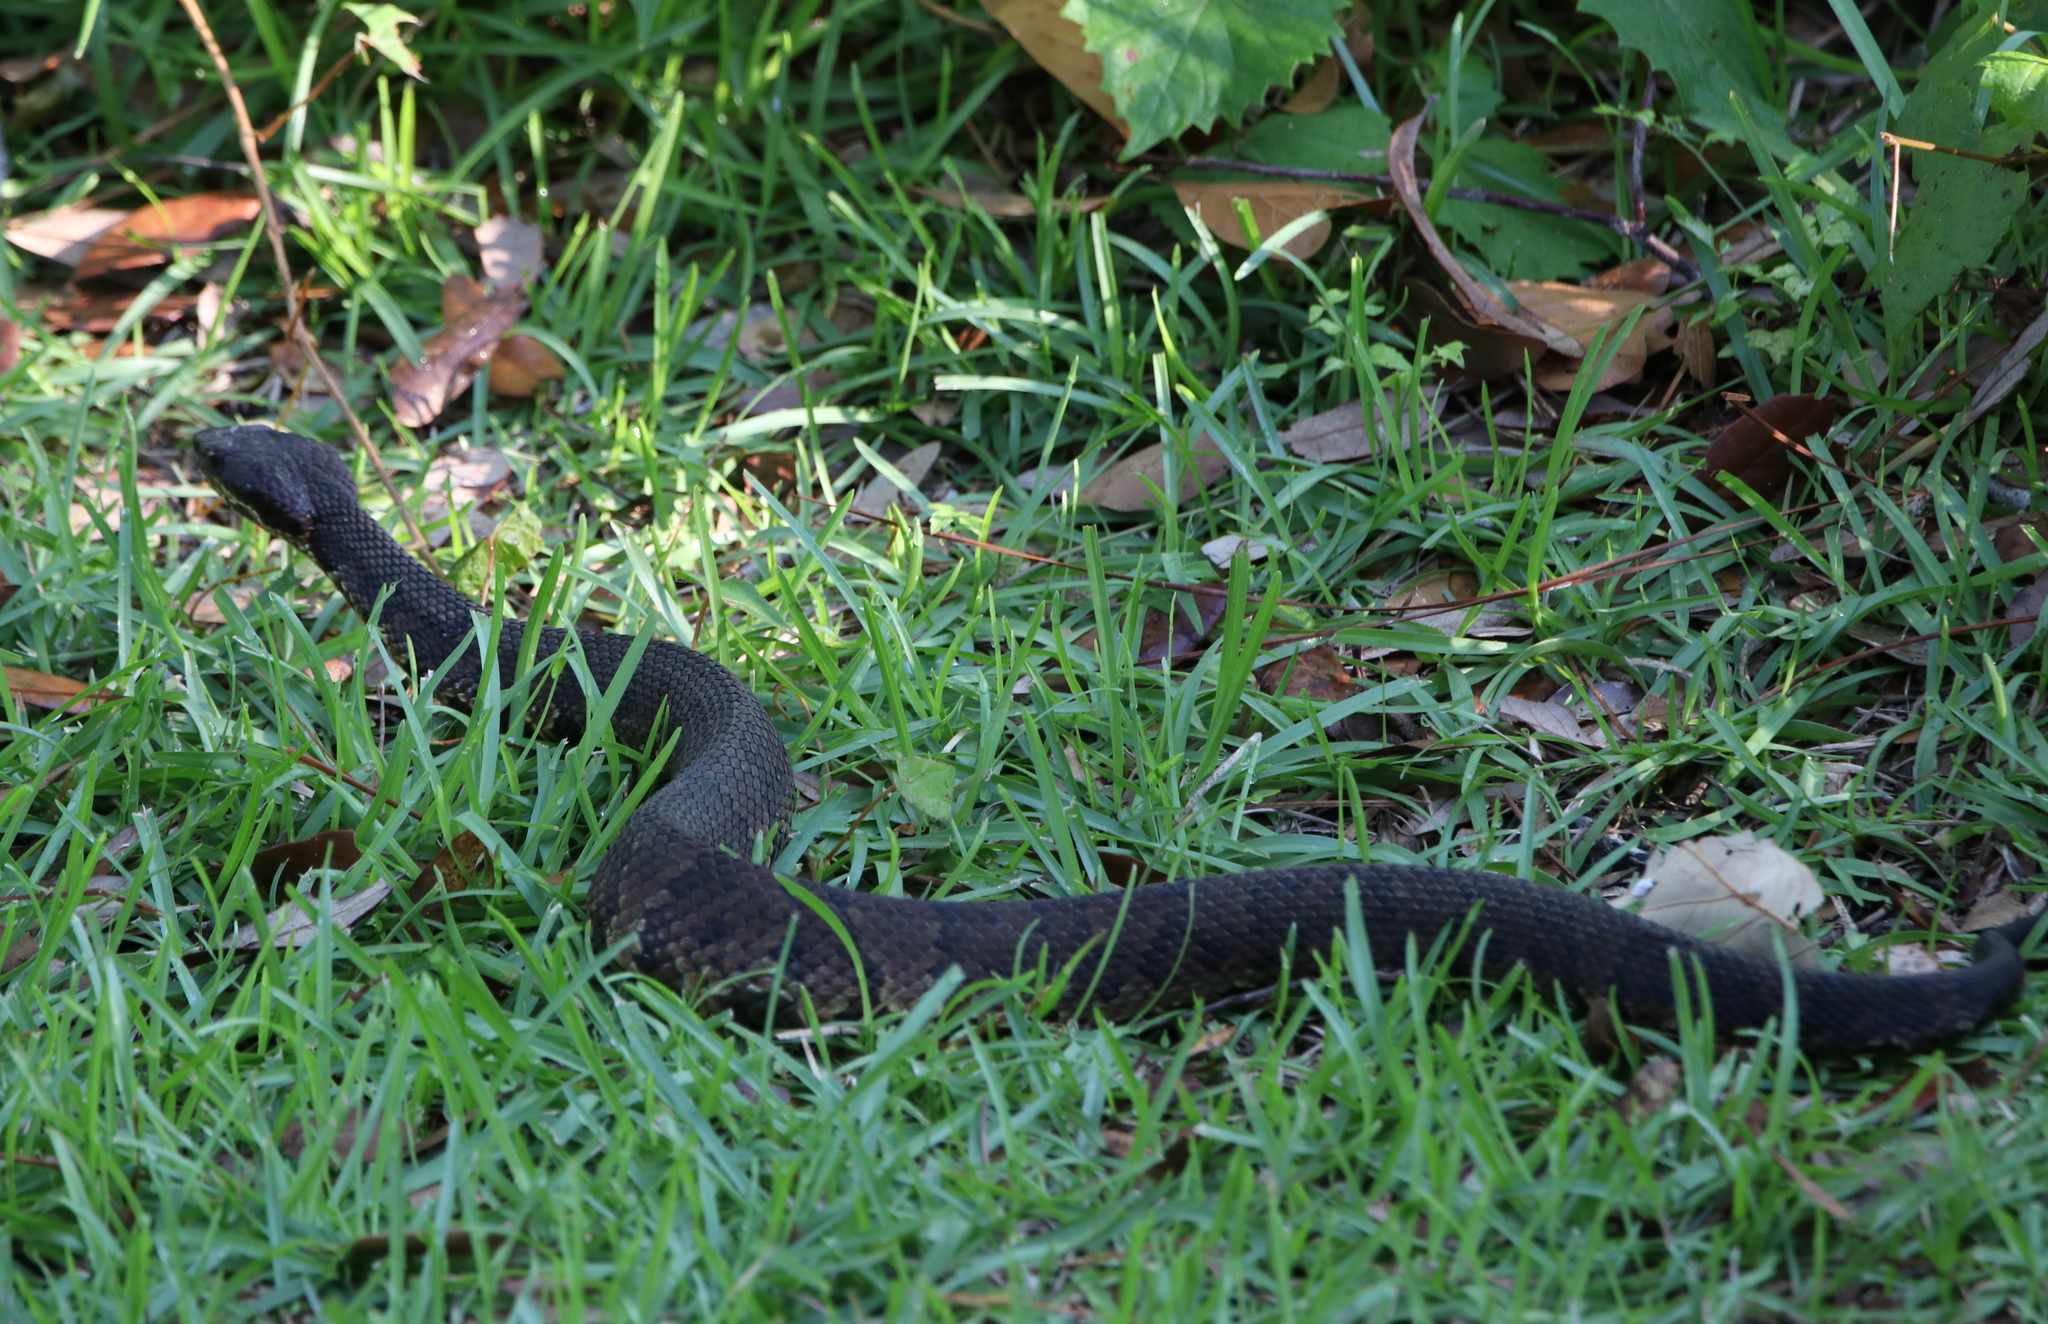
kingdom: Animalia
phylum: Chordata
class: Squamata
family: Viperidae
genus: Agkistrodon
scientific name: Agkistrodon piscivorus
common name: Cottonmouth
